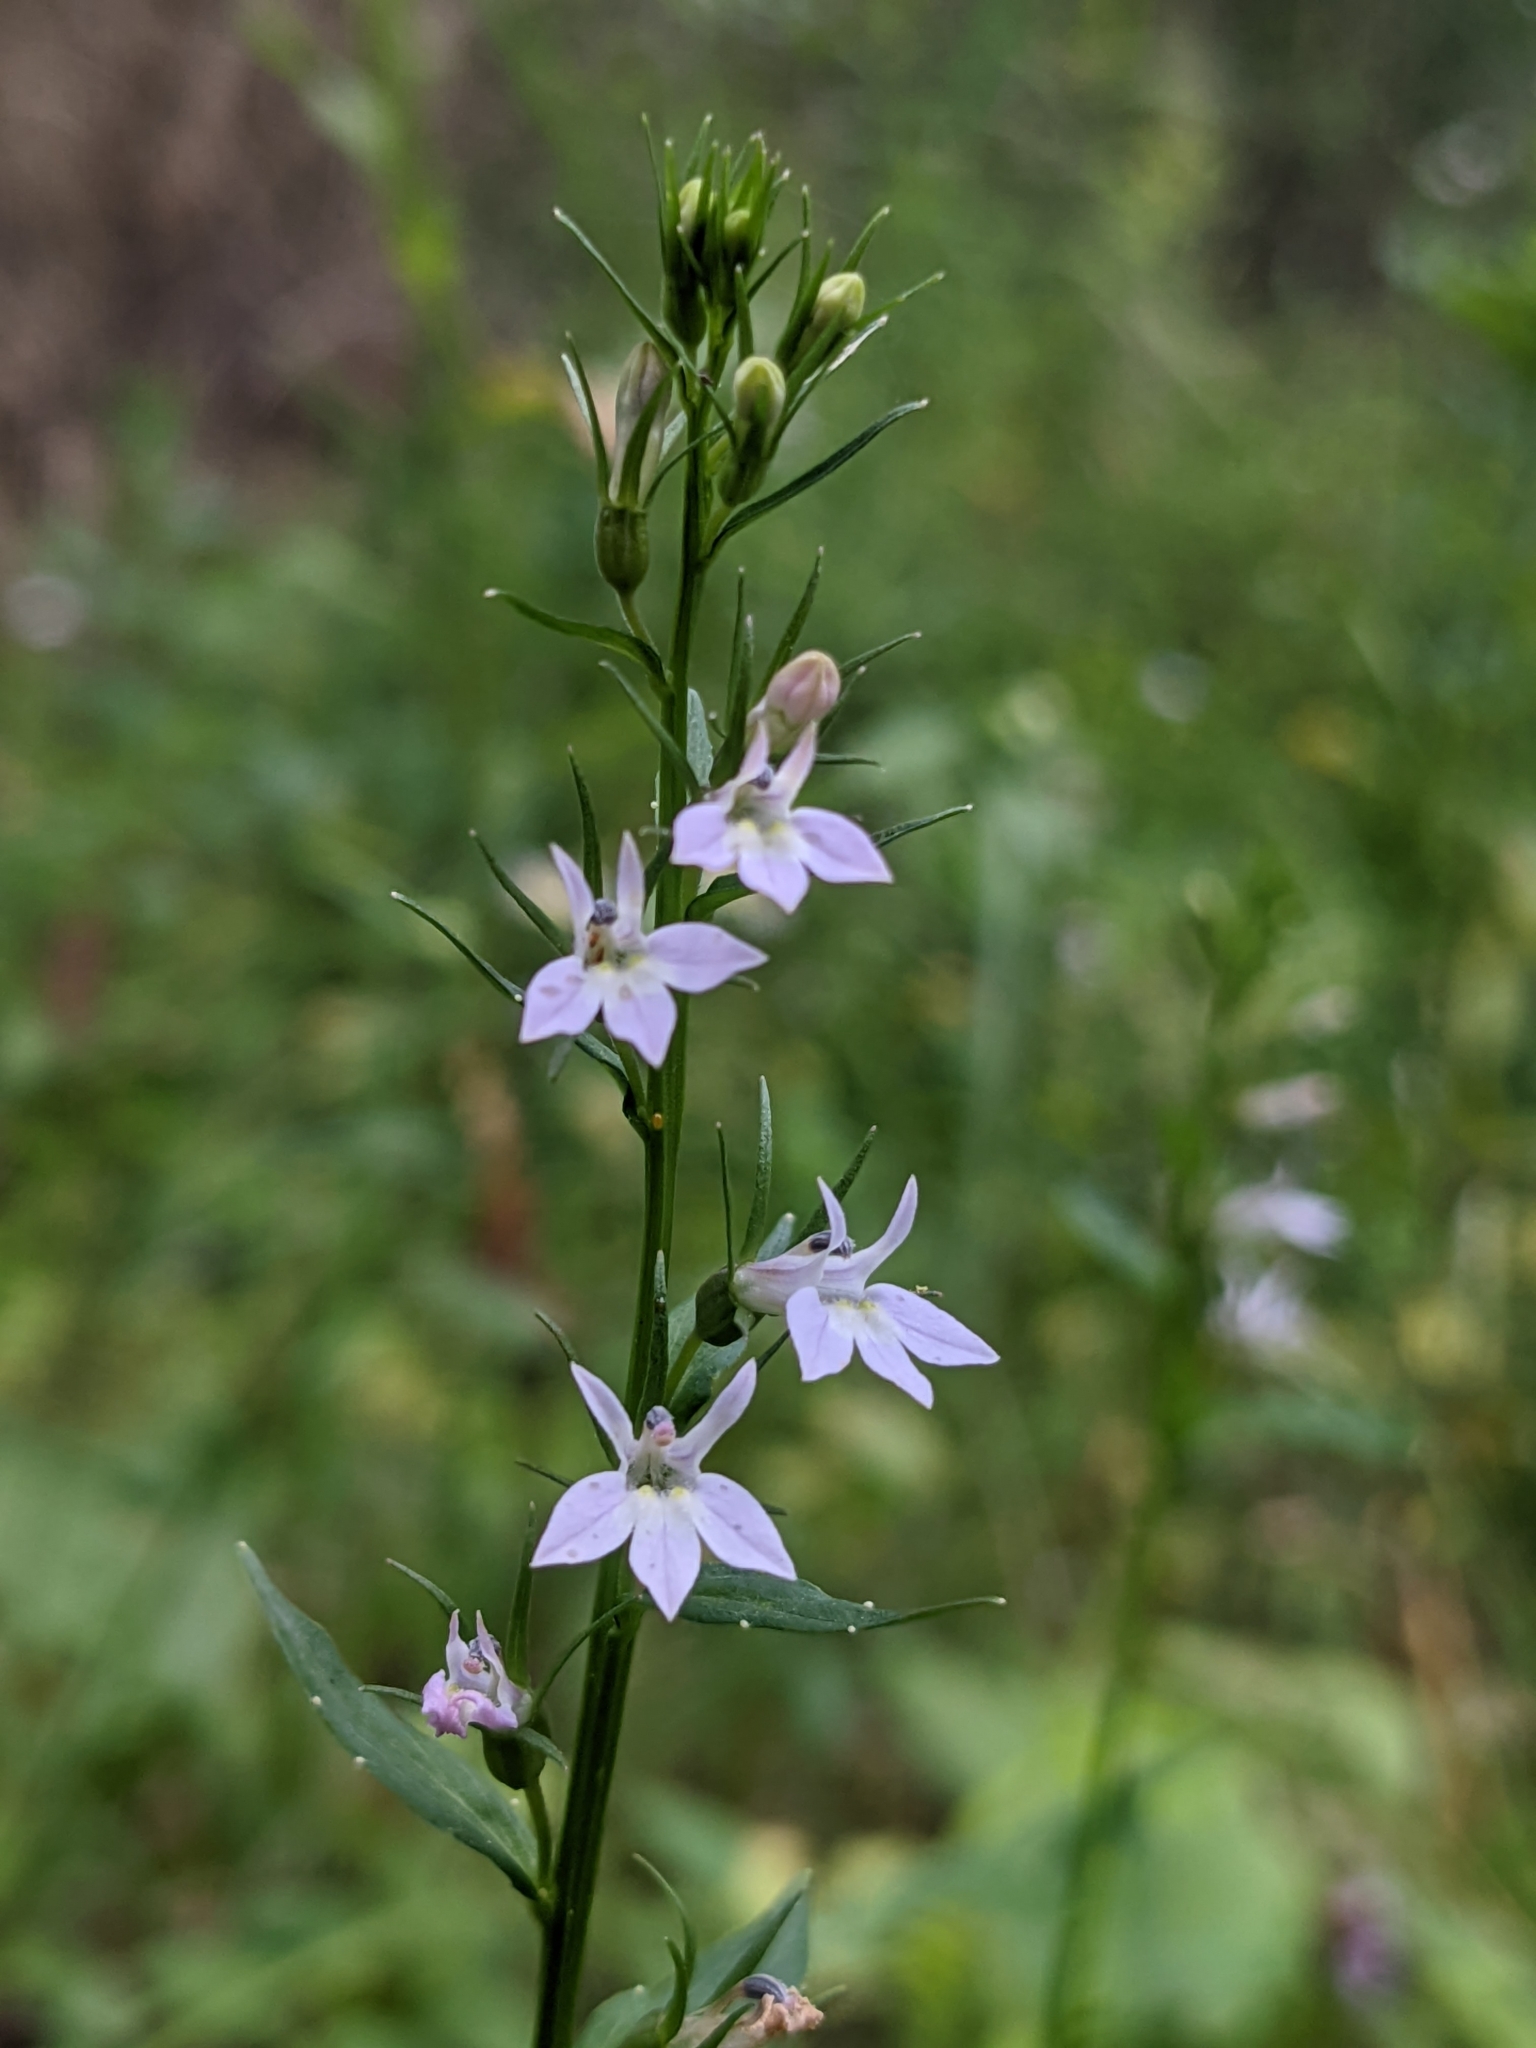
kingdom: Plantae
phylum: Tracheophyta
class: Magnoliopsida
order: Asterales
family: Campanulaceae
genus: Lobelia
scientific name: Lobelia inflata
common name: Indian tobacco
